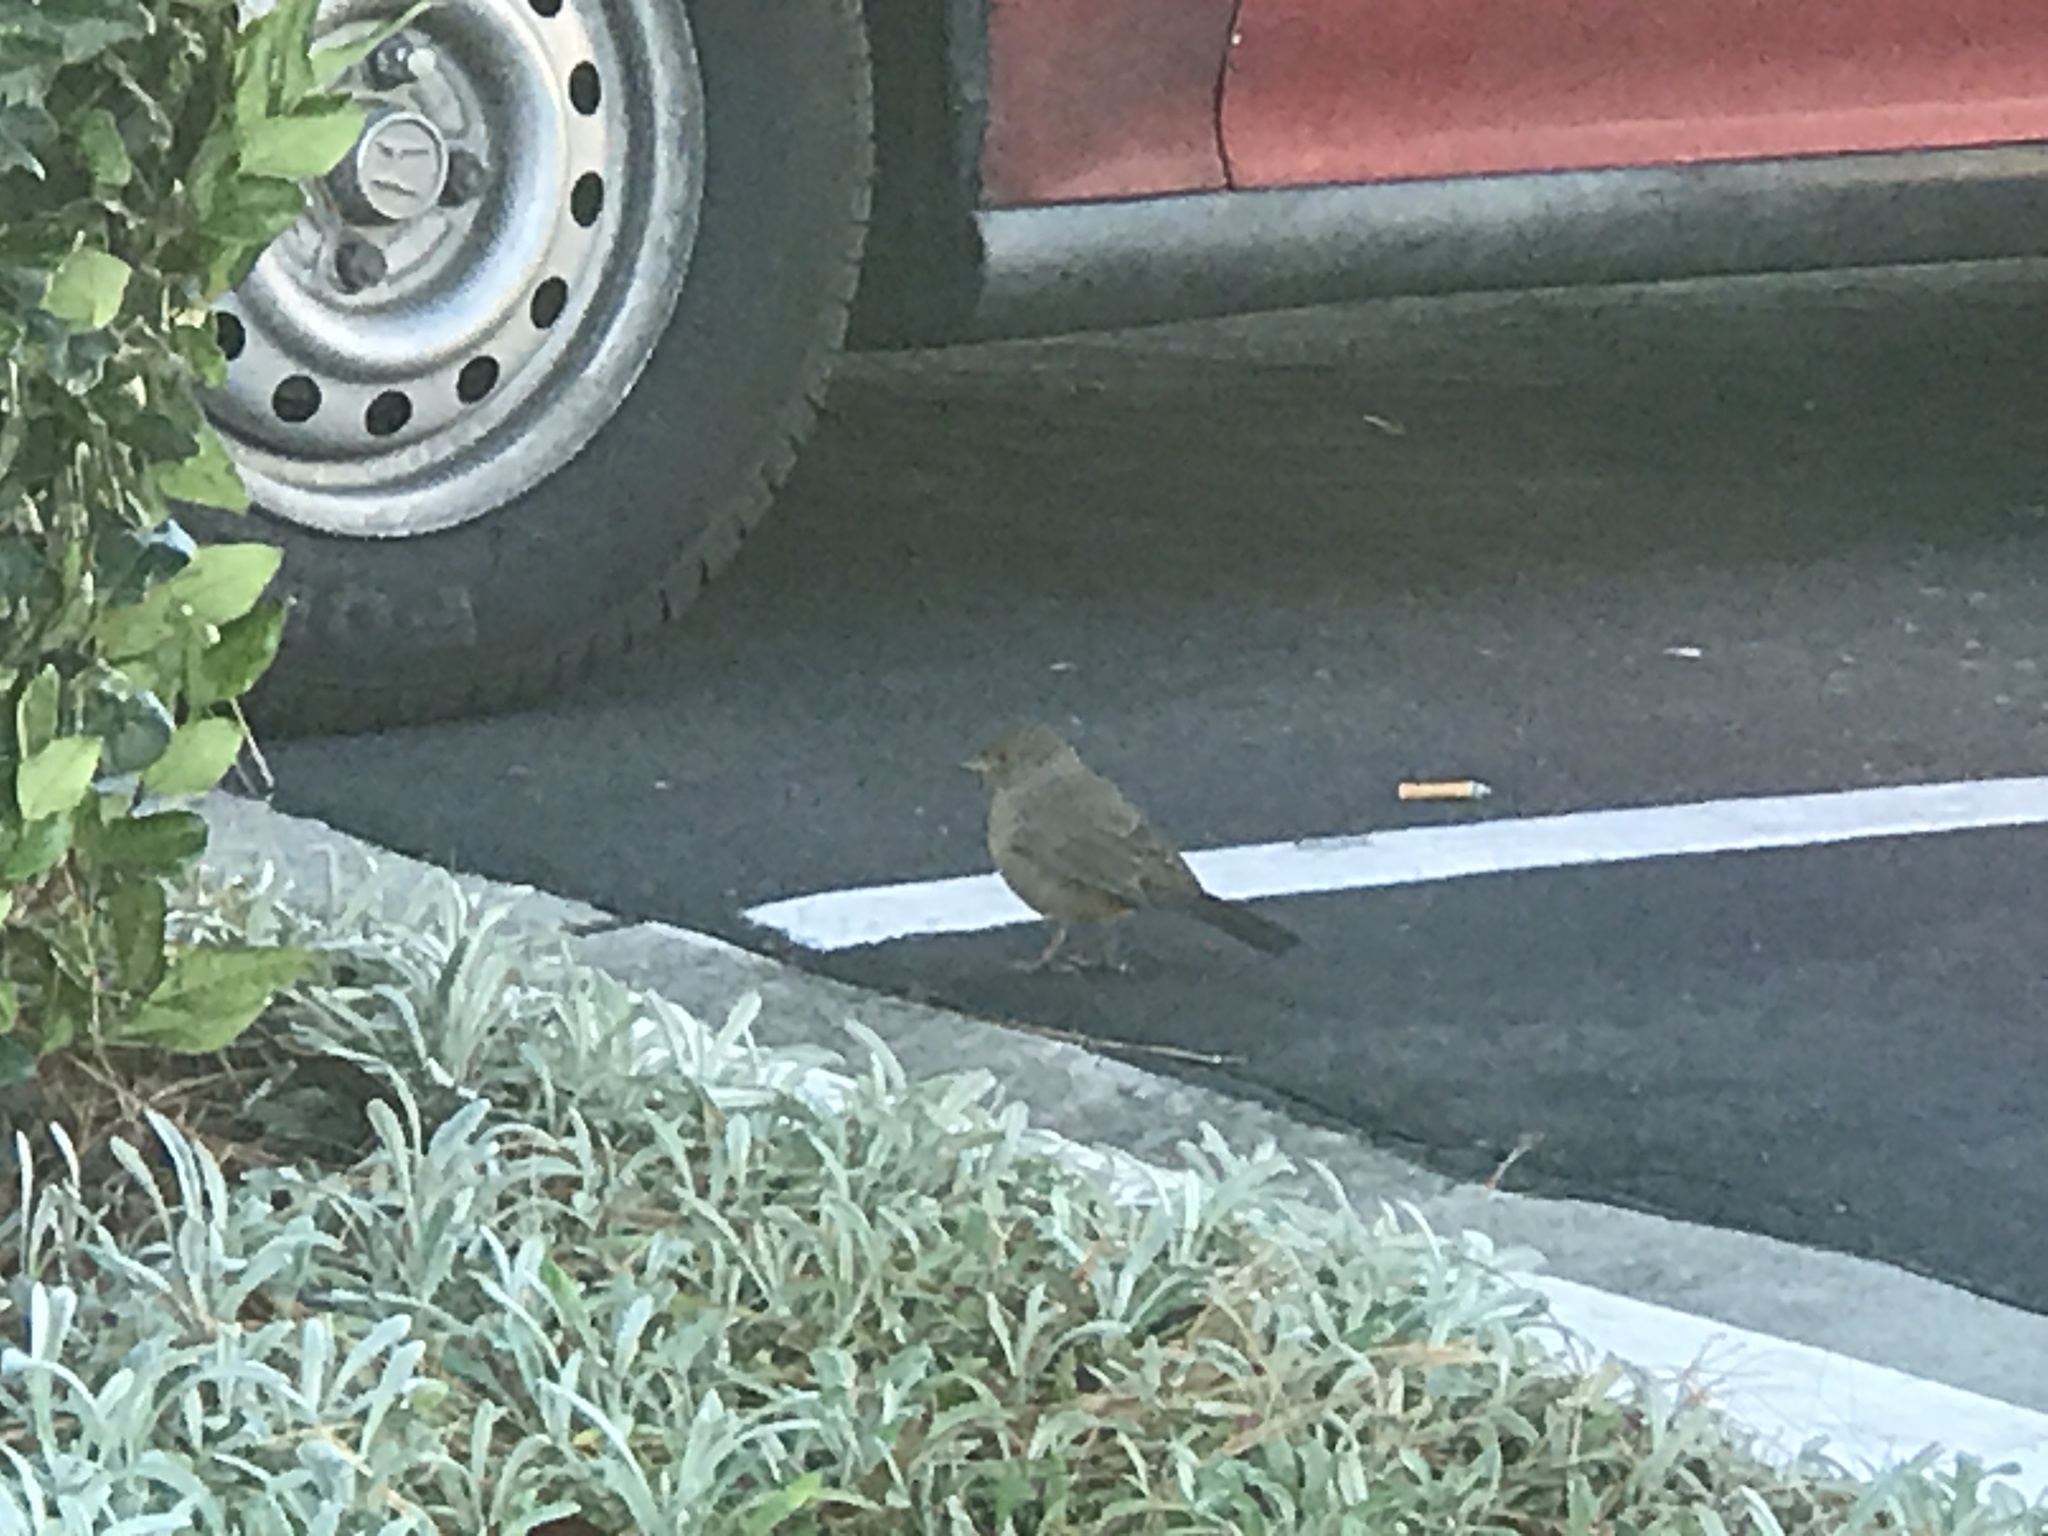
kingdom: Animalia
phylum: Chordata
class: Aves
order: Passeriformes
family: Passerellidae
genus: Melozone
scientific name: Melozone crissalis
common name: California towhee
